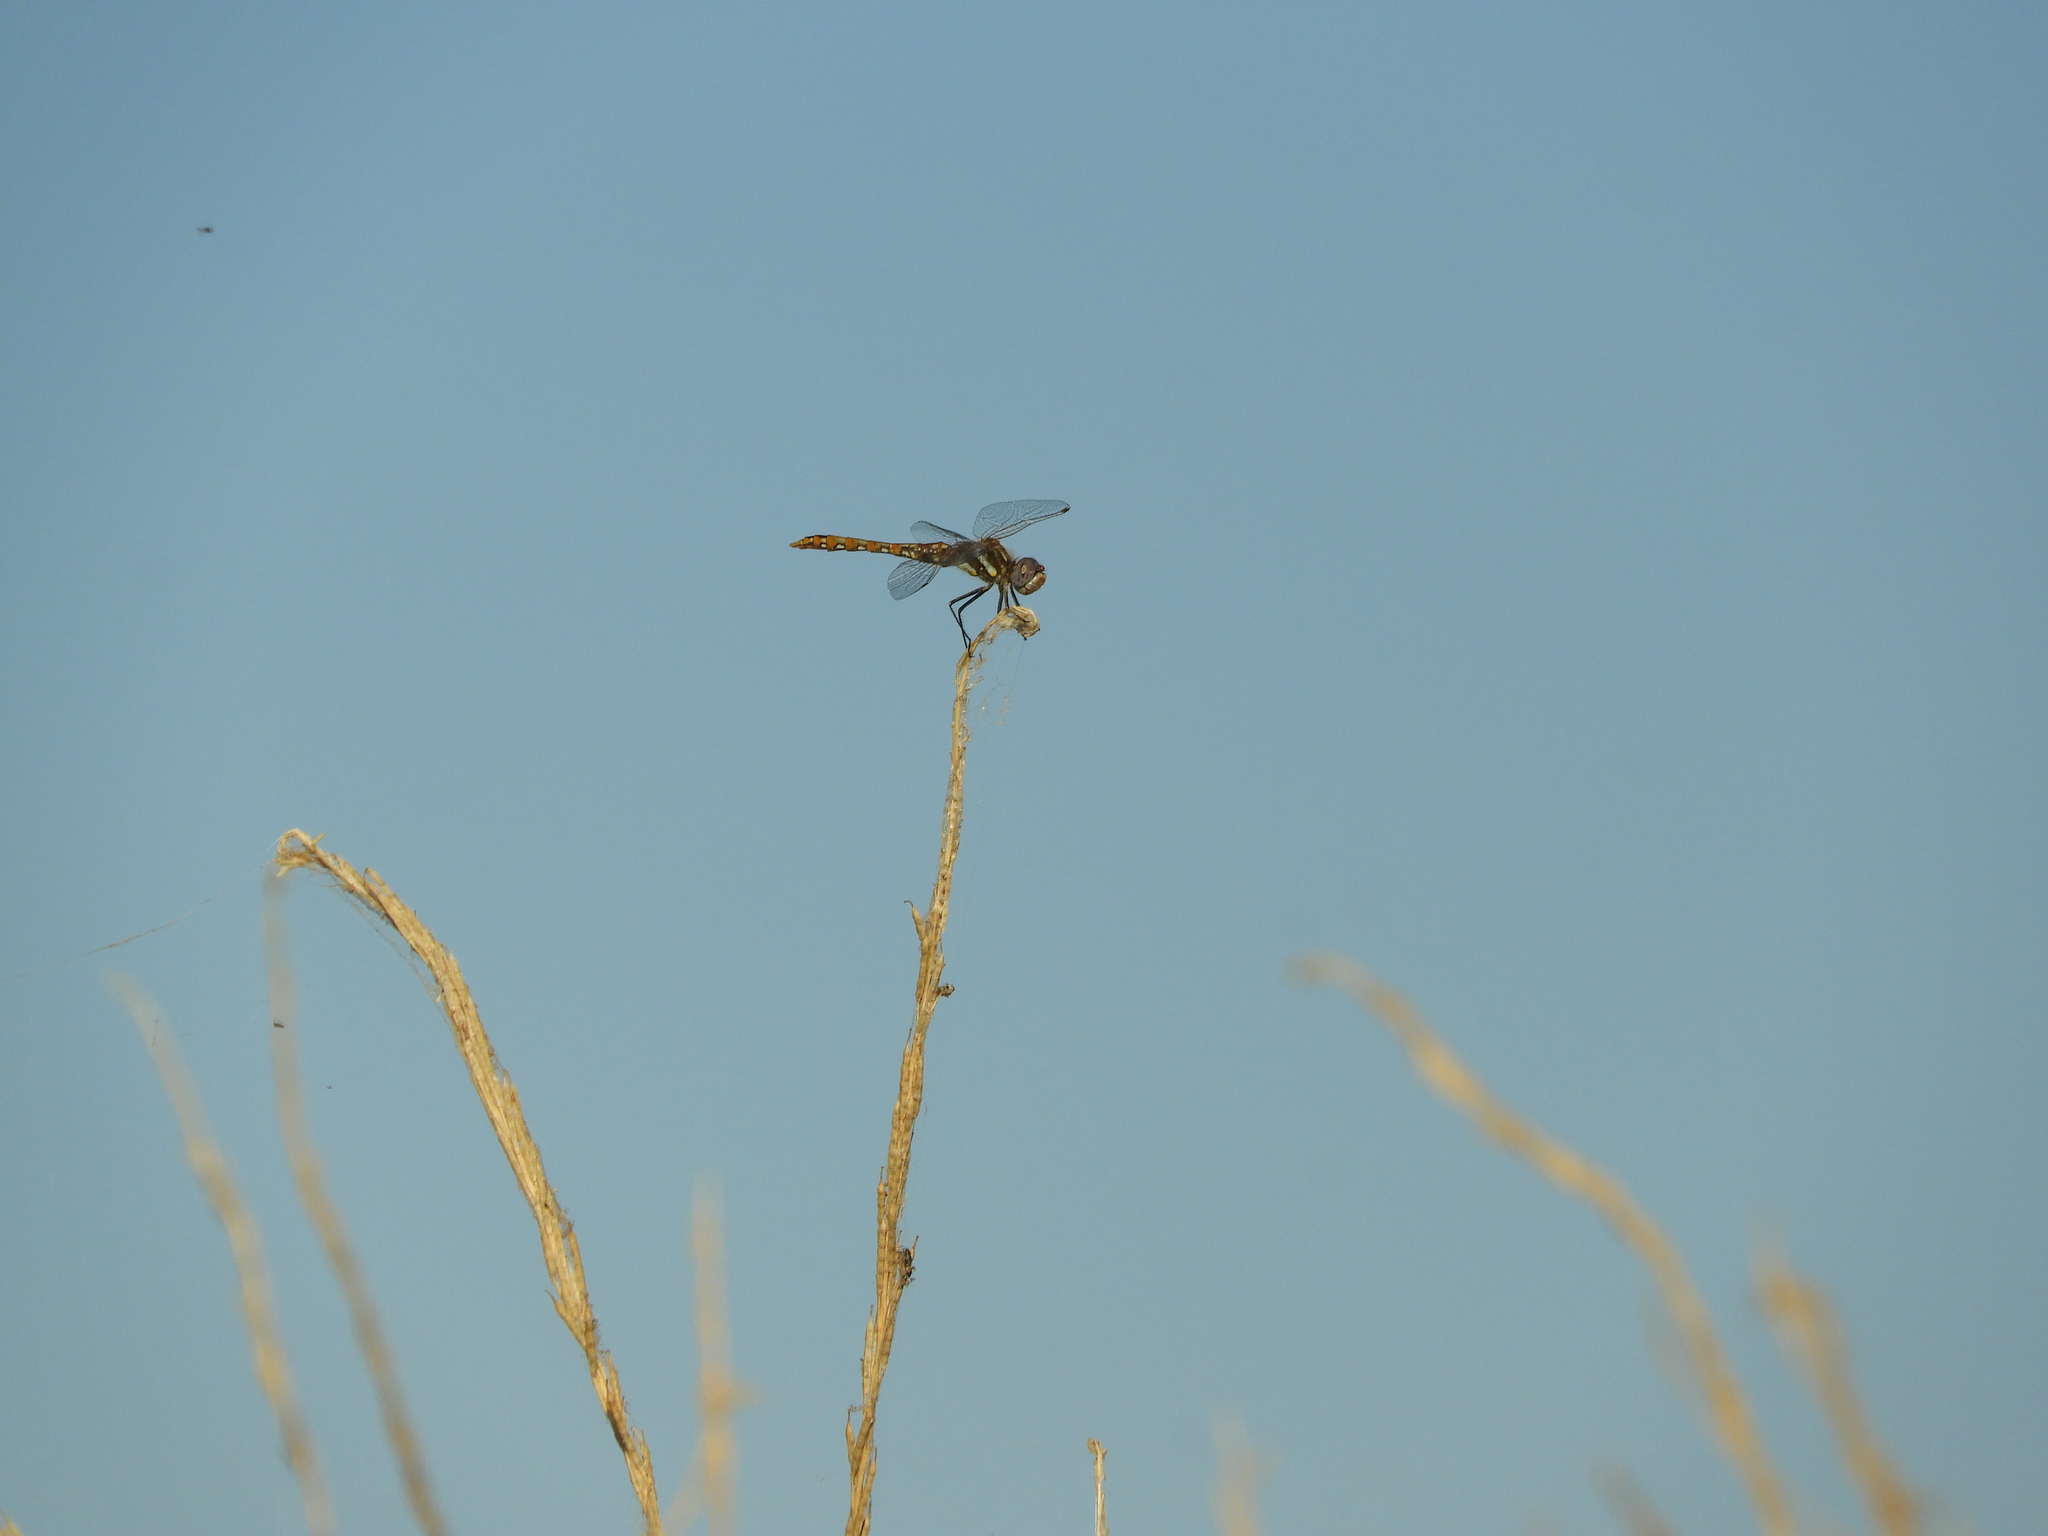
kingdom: Animalia
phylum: Arthropoda
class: Insecta
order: Odonata
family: Libellulidae
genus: Sympetrum
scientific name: Sympetrum corruptum
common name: Variegated meadowhawk
